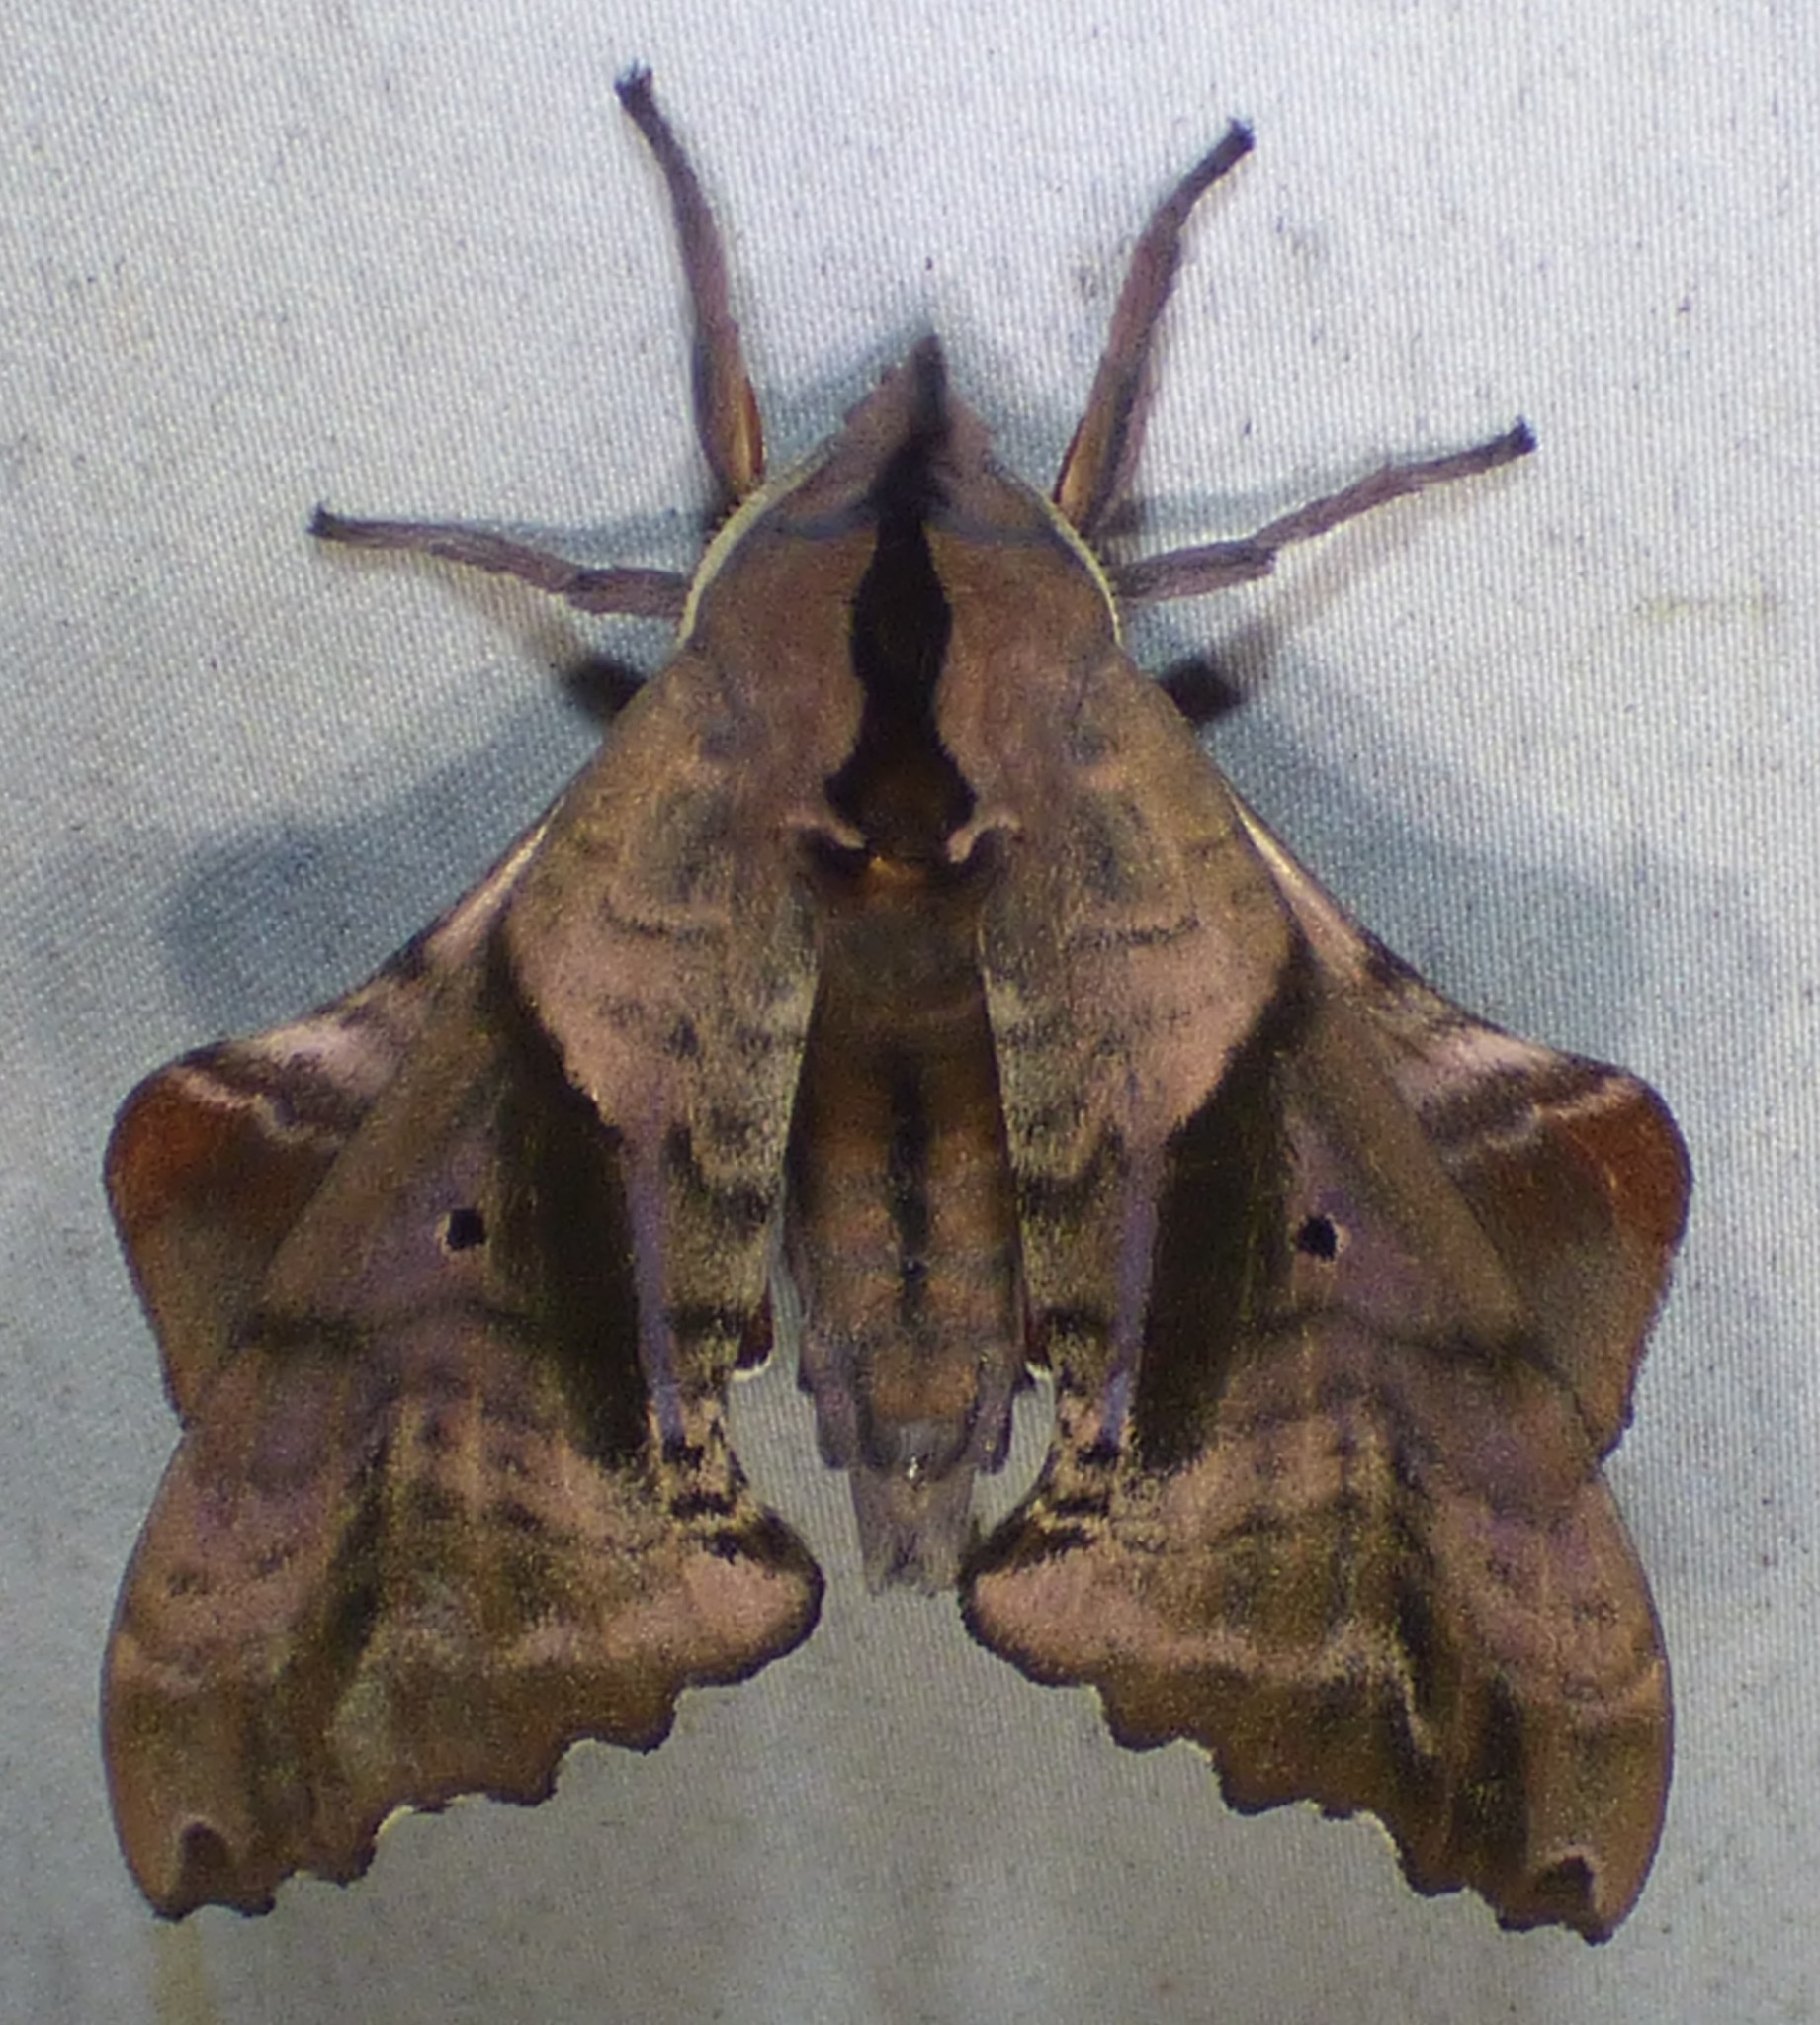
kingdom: Animalia
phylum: Arthropoda
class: Insecta
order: Lepidoptera
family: Sphingidae
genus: Paonias
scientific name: Paonias excaecata
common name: Blind-eyed sphinx
